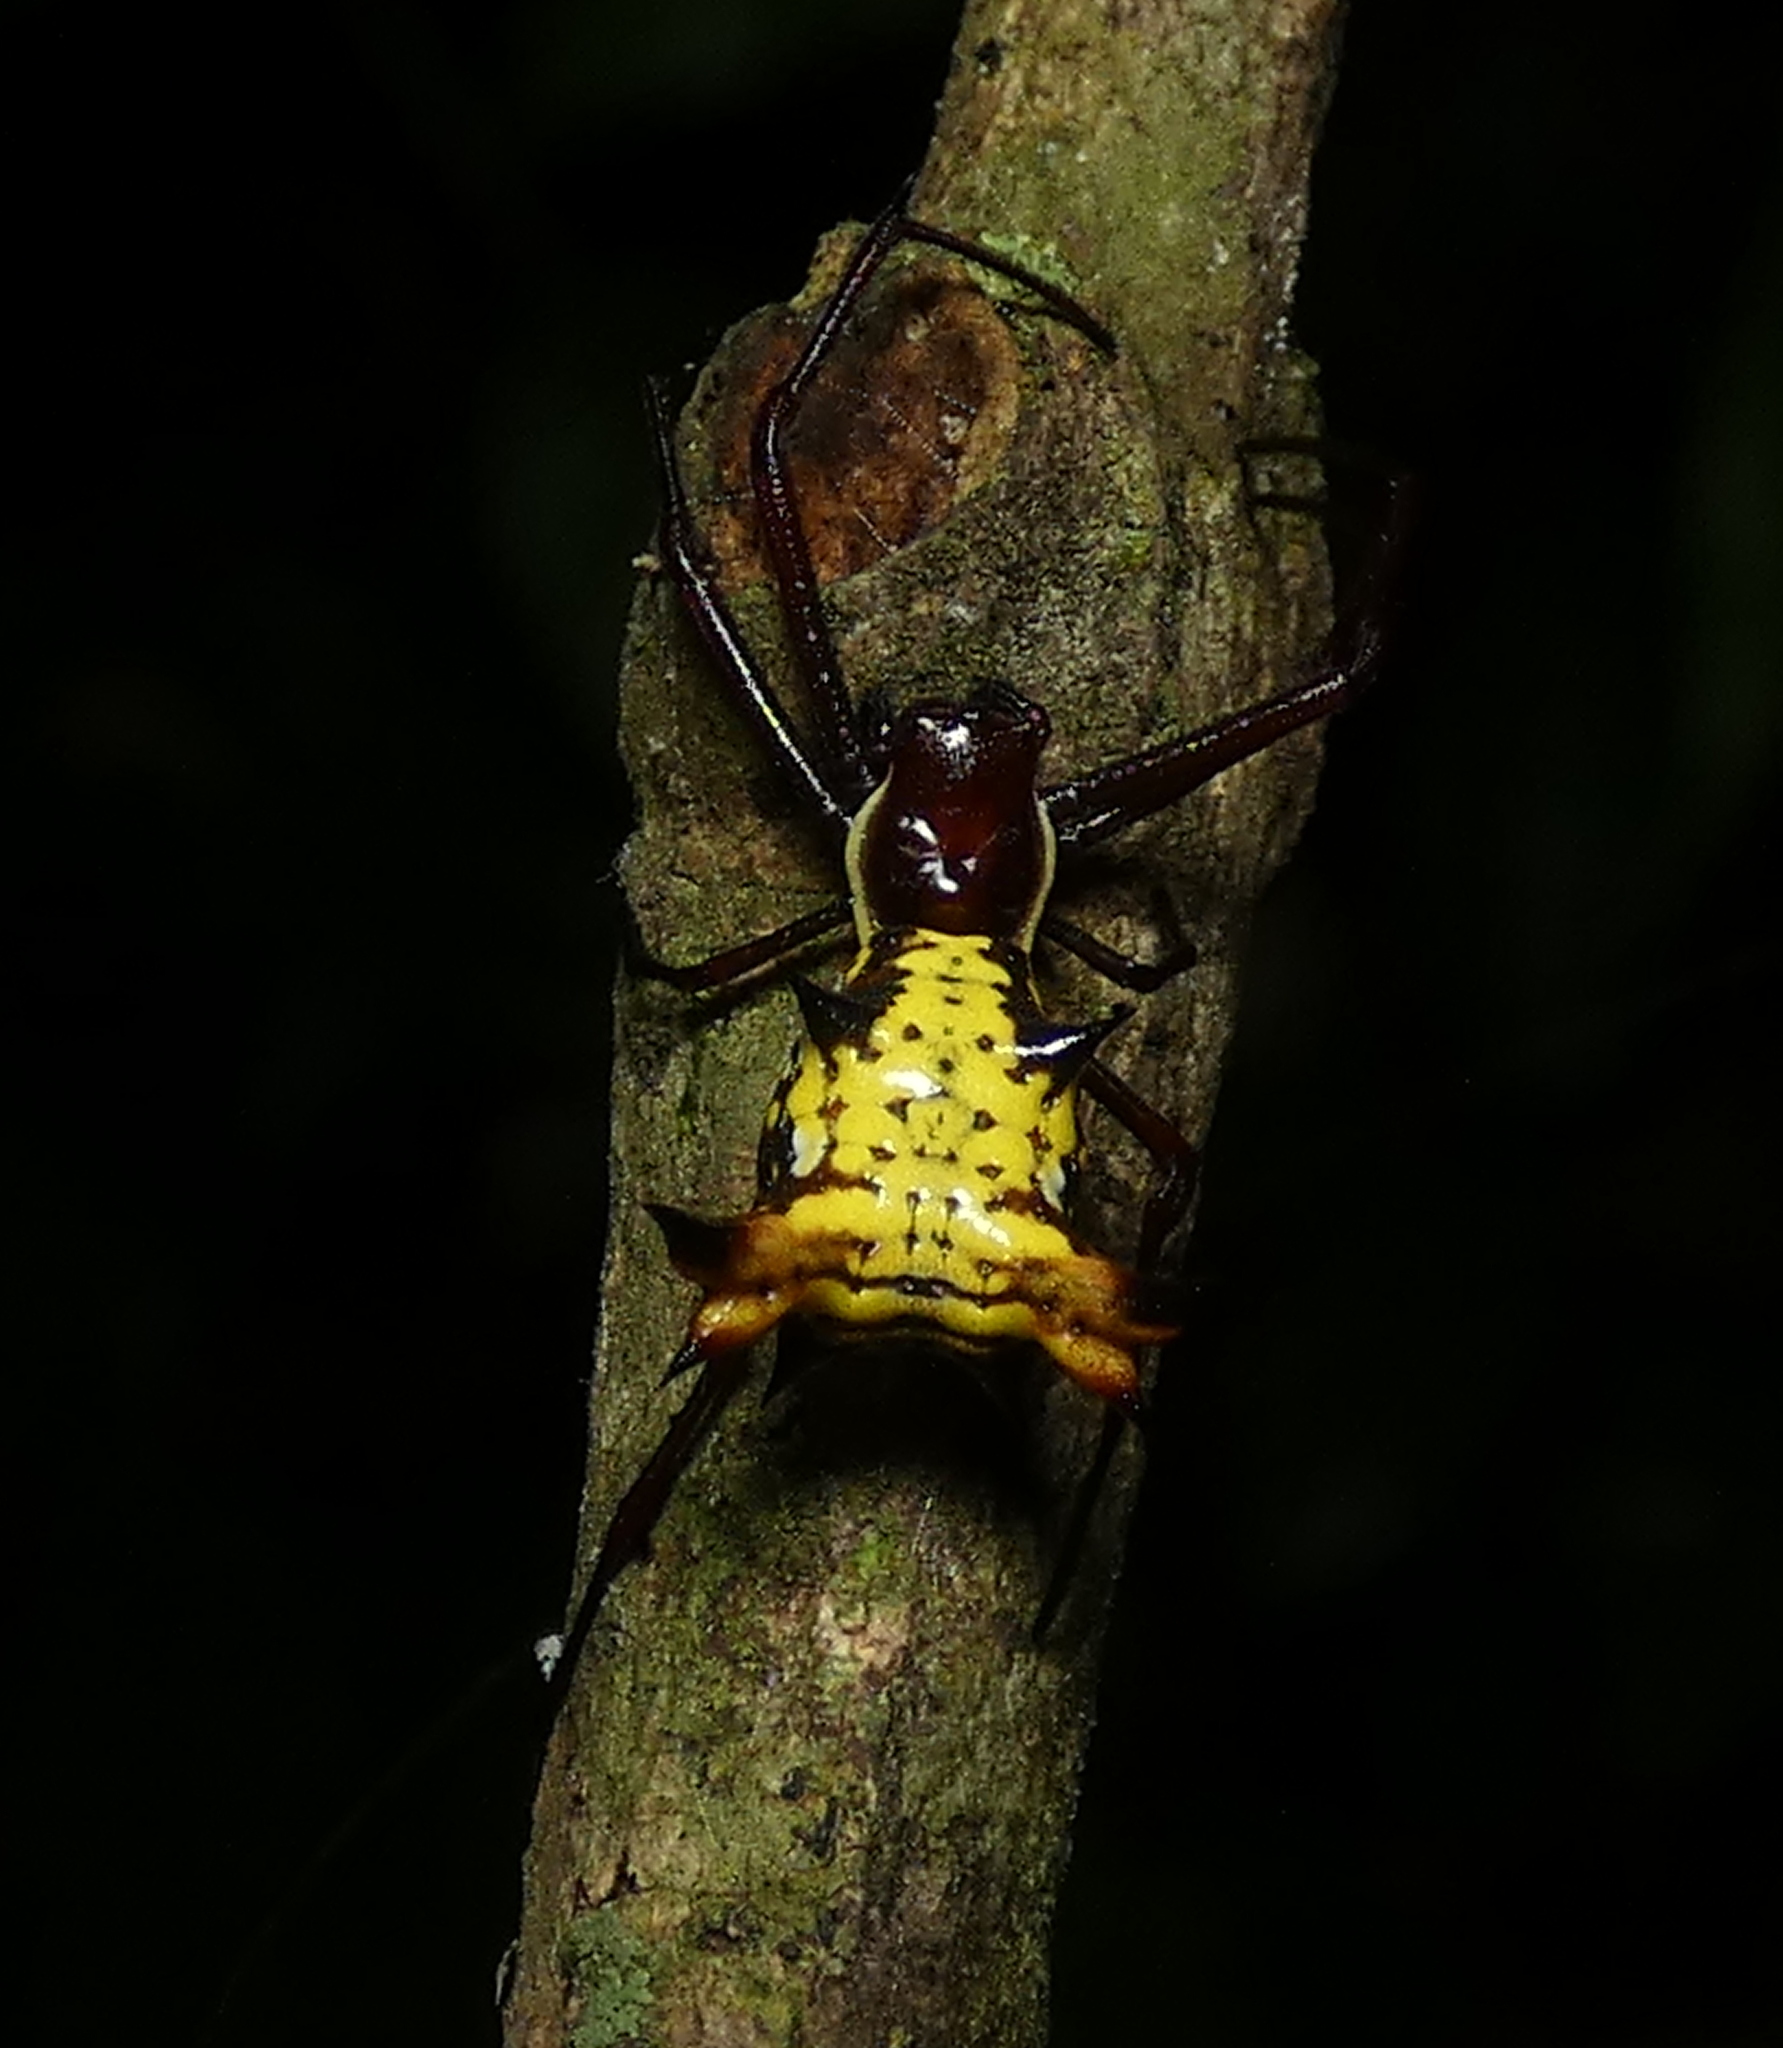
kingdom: Animalia
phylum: Arthropoda
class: Arachnida
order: Araneae
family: Araneidae
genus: Micrathena
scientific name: Micrathena fissispina
